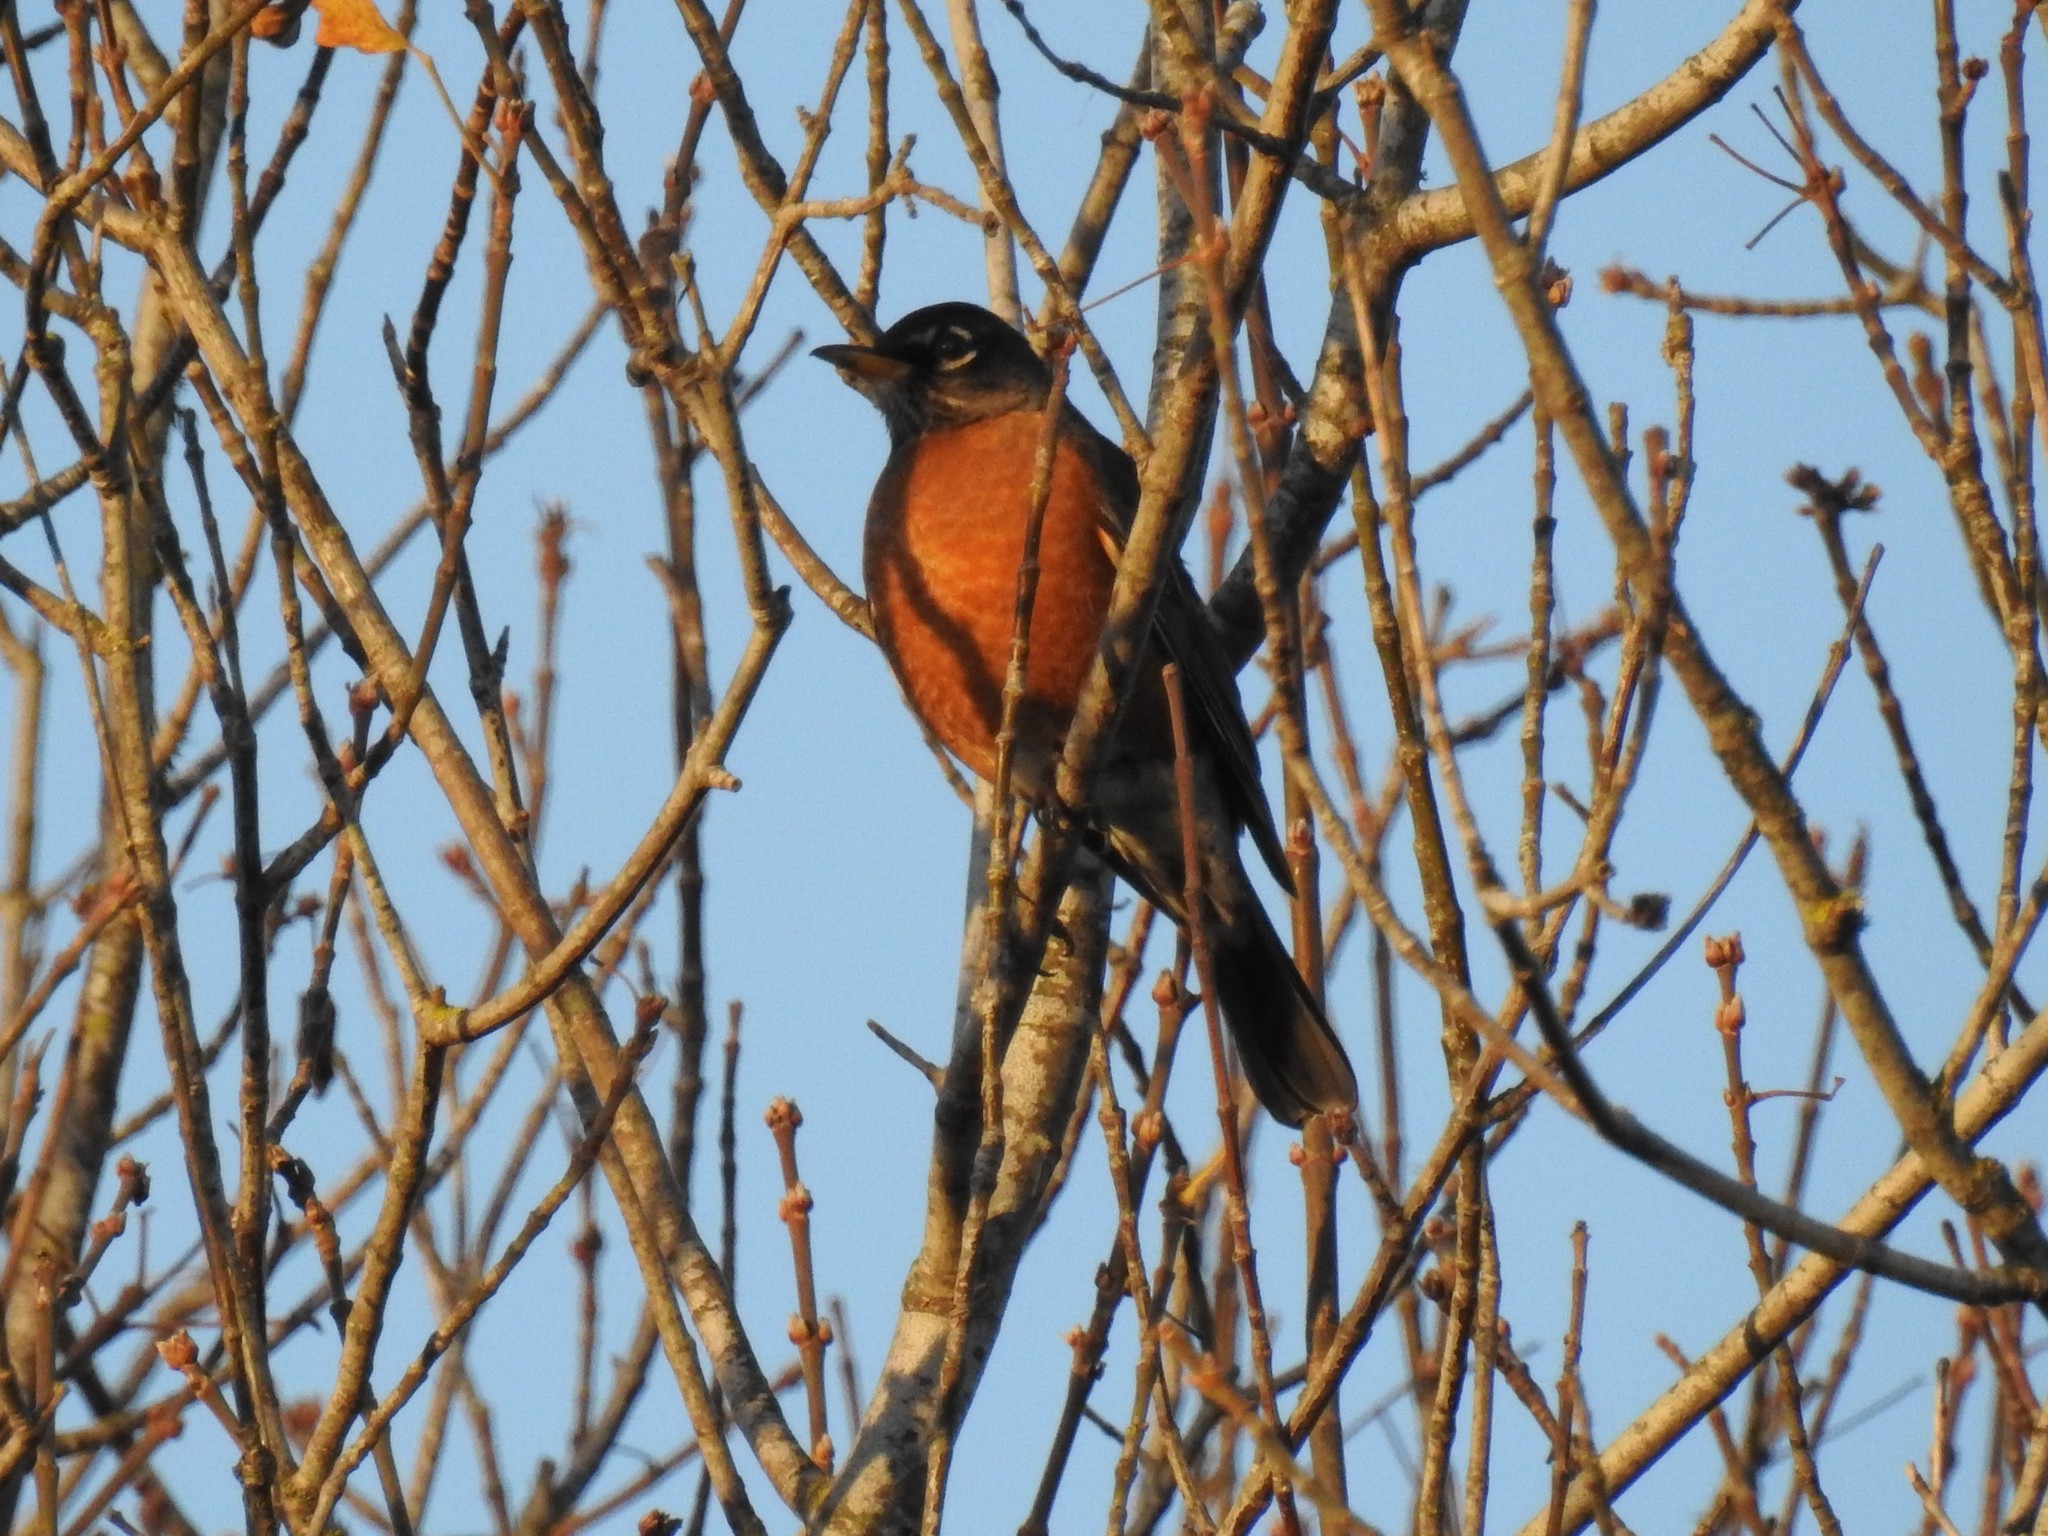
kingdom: Animalia
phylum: Chordata
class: Aves
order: Passeriformes
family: Turdidae
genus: Turdus
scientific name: Turdus migratorius
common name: American robin
